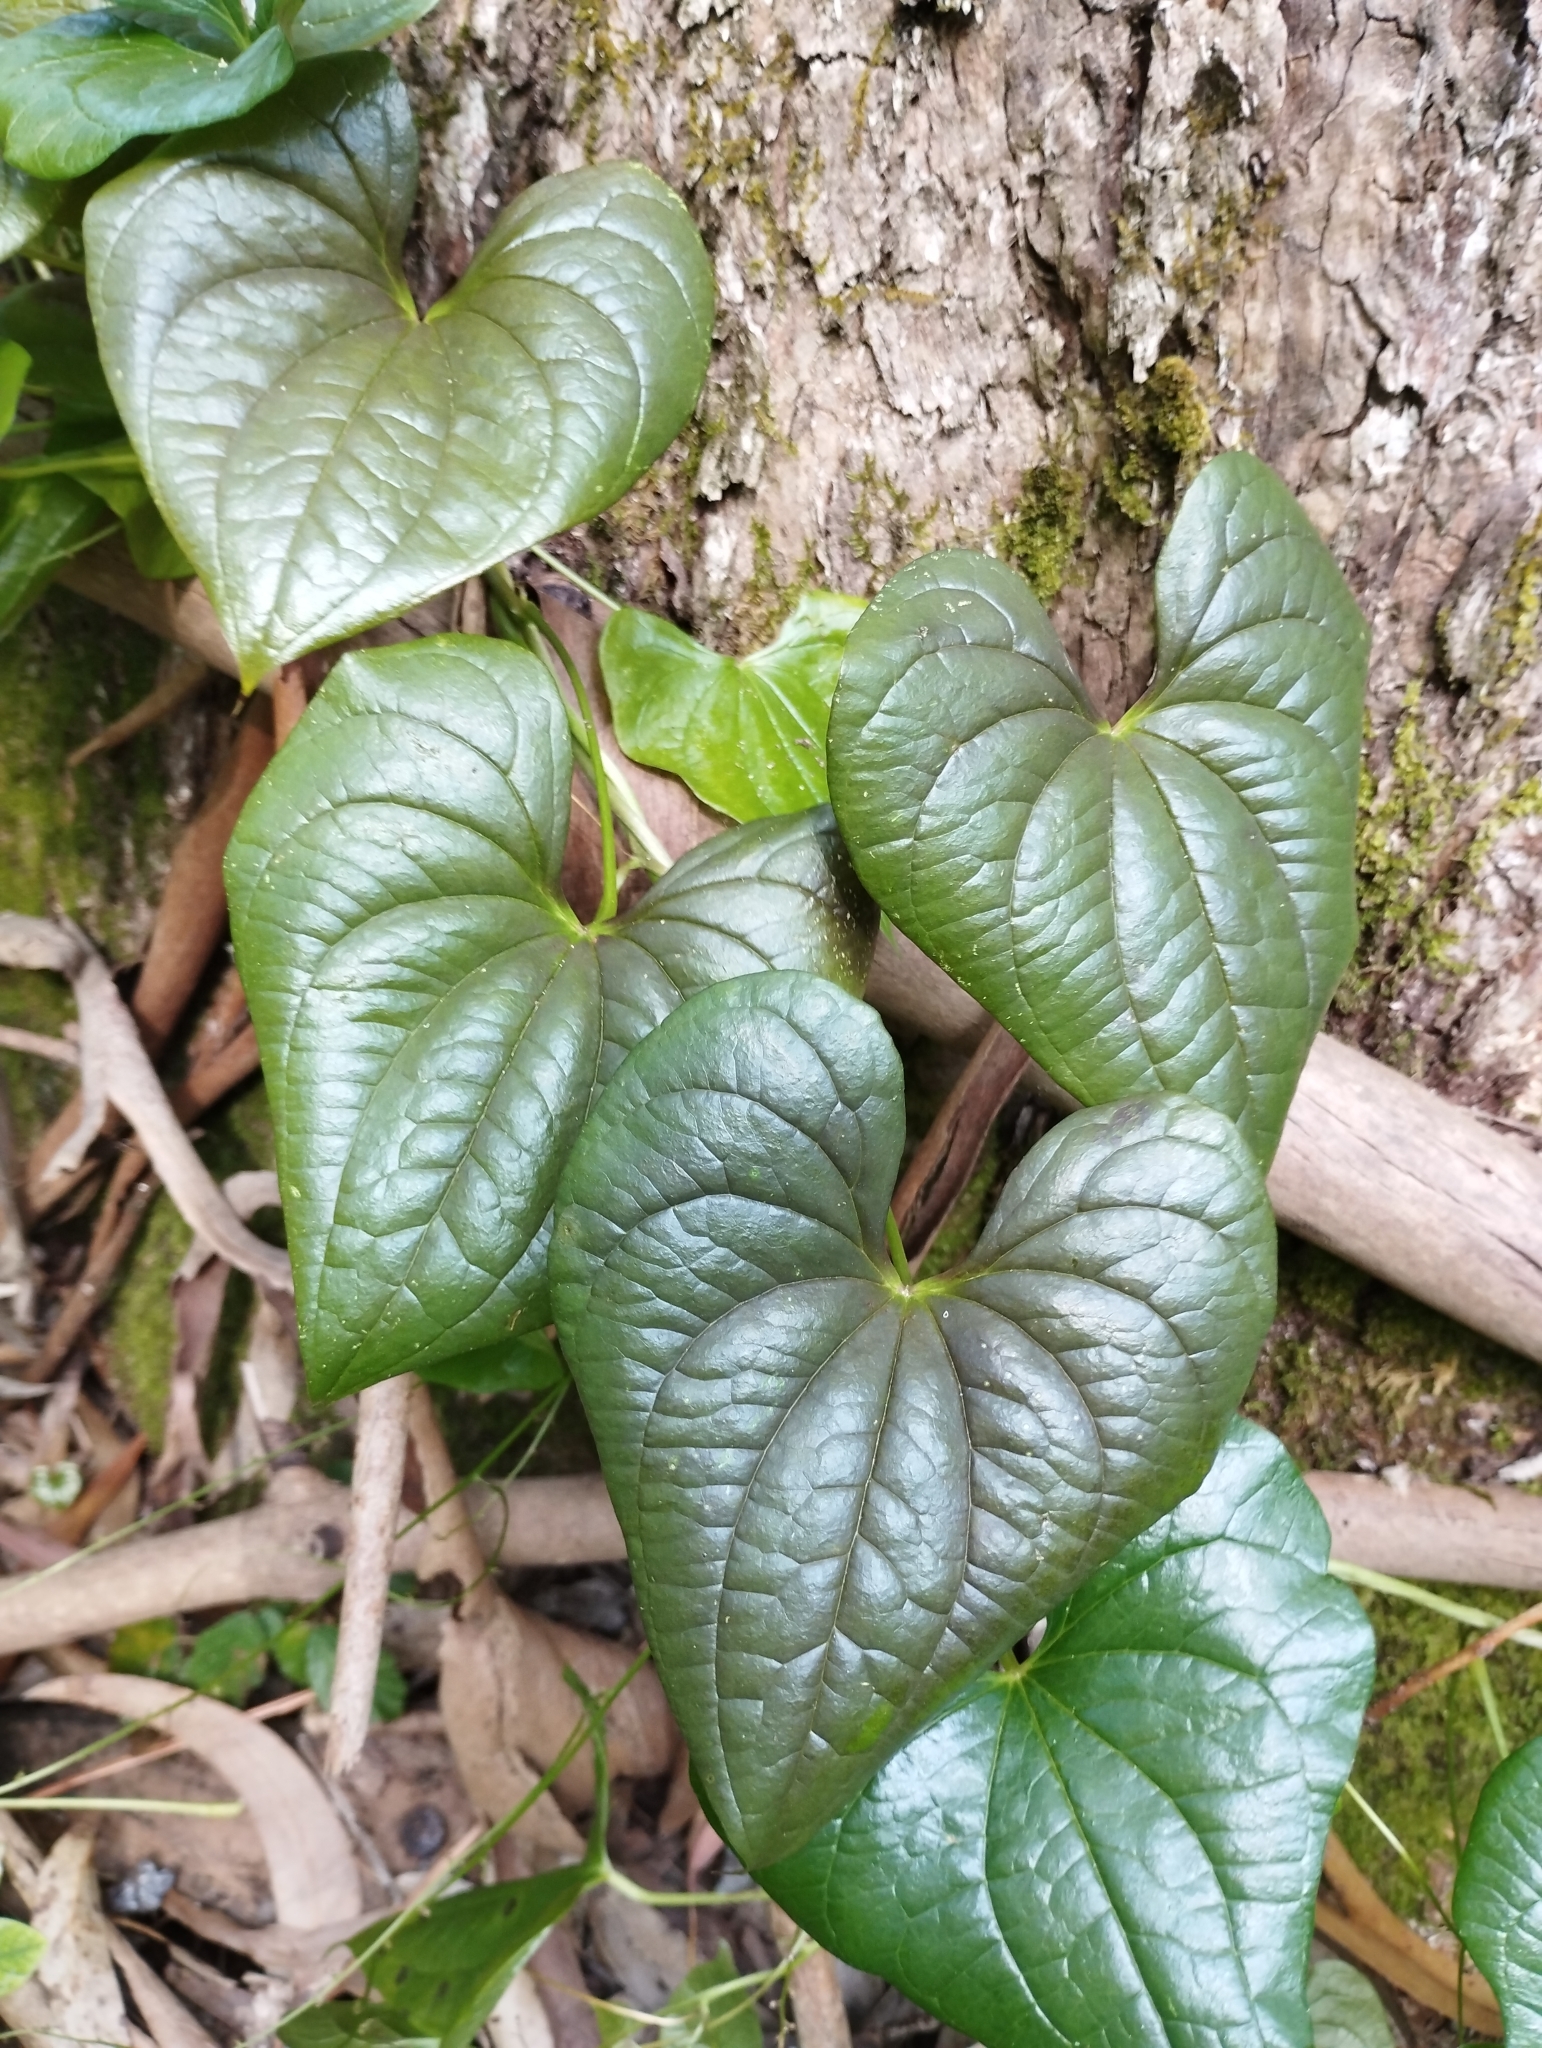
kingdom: Plantae
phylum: Tracheophyta
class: Liliopsida
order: Dioscoreales
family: Dioscoreaceae
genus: Dioscorea
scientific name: Dioscorea communis
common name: Black-bindweed
